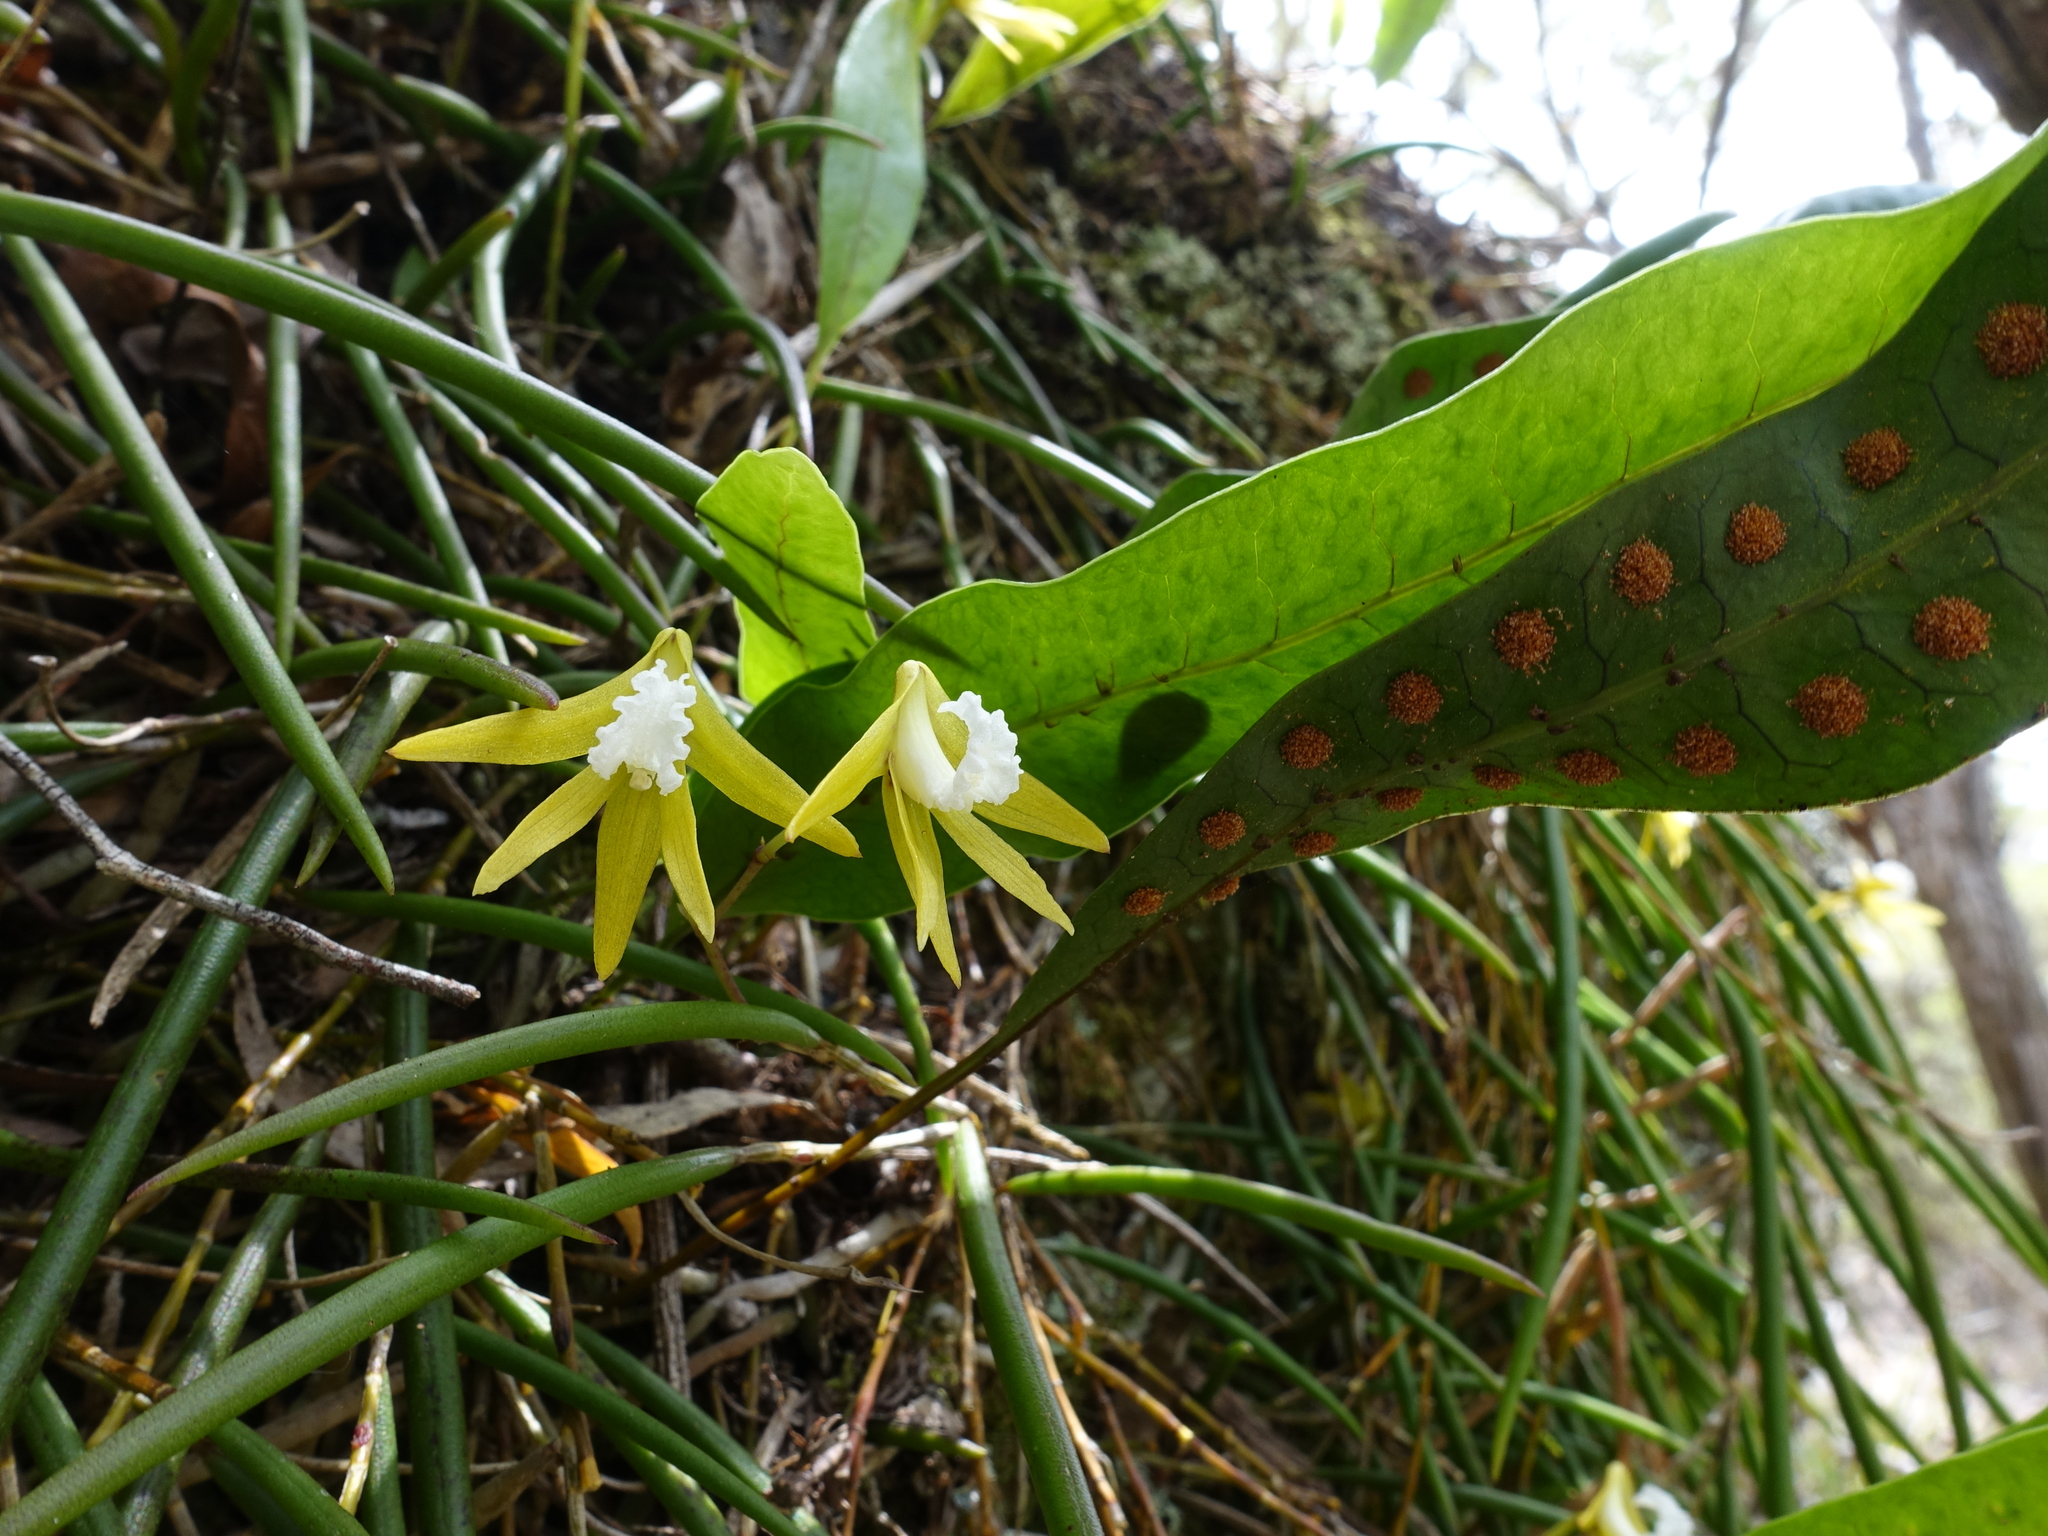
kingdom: Plantae
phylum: Tracheophyta
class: Liliopsida
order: Asparagales
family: Orchidaceae
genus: Dendrobium
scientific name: Dendrobium striolatum
